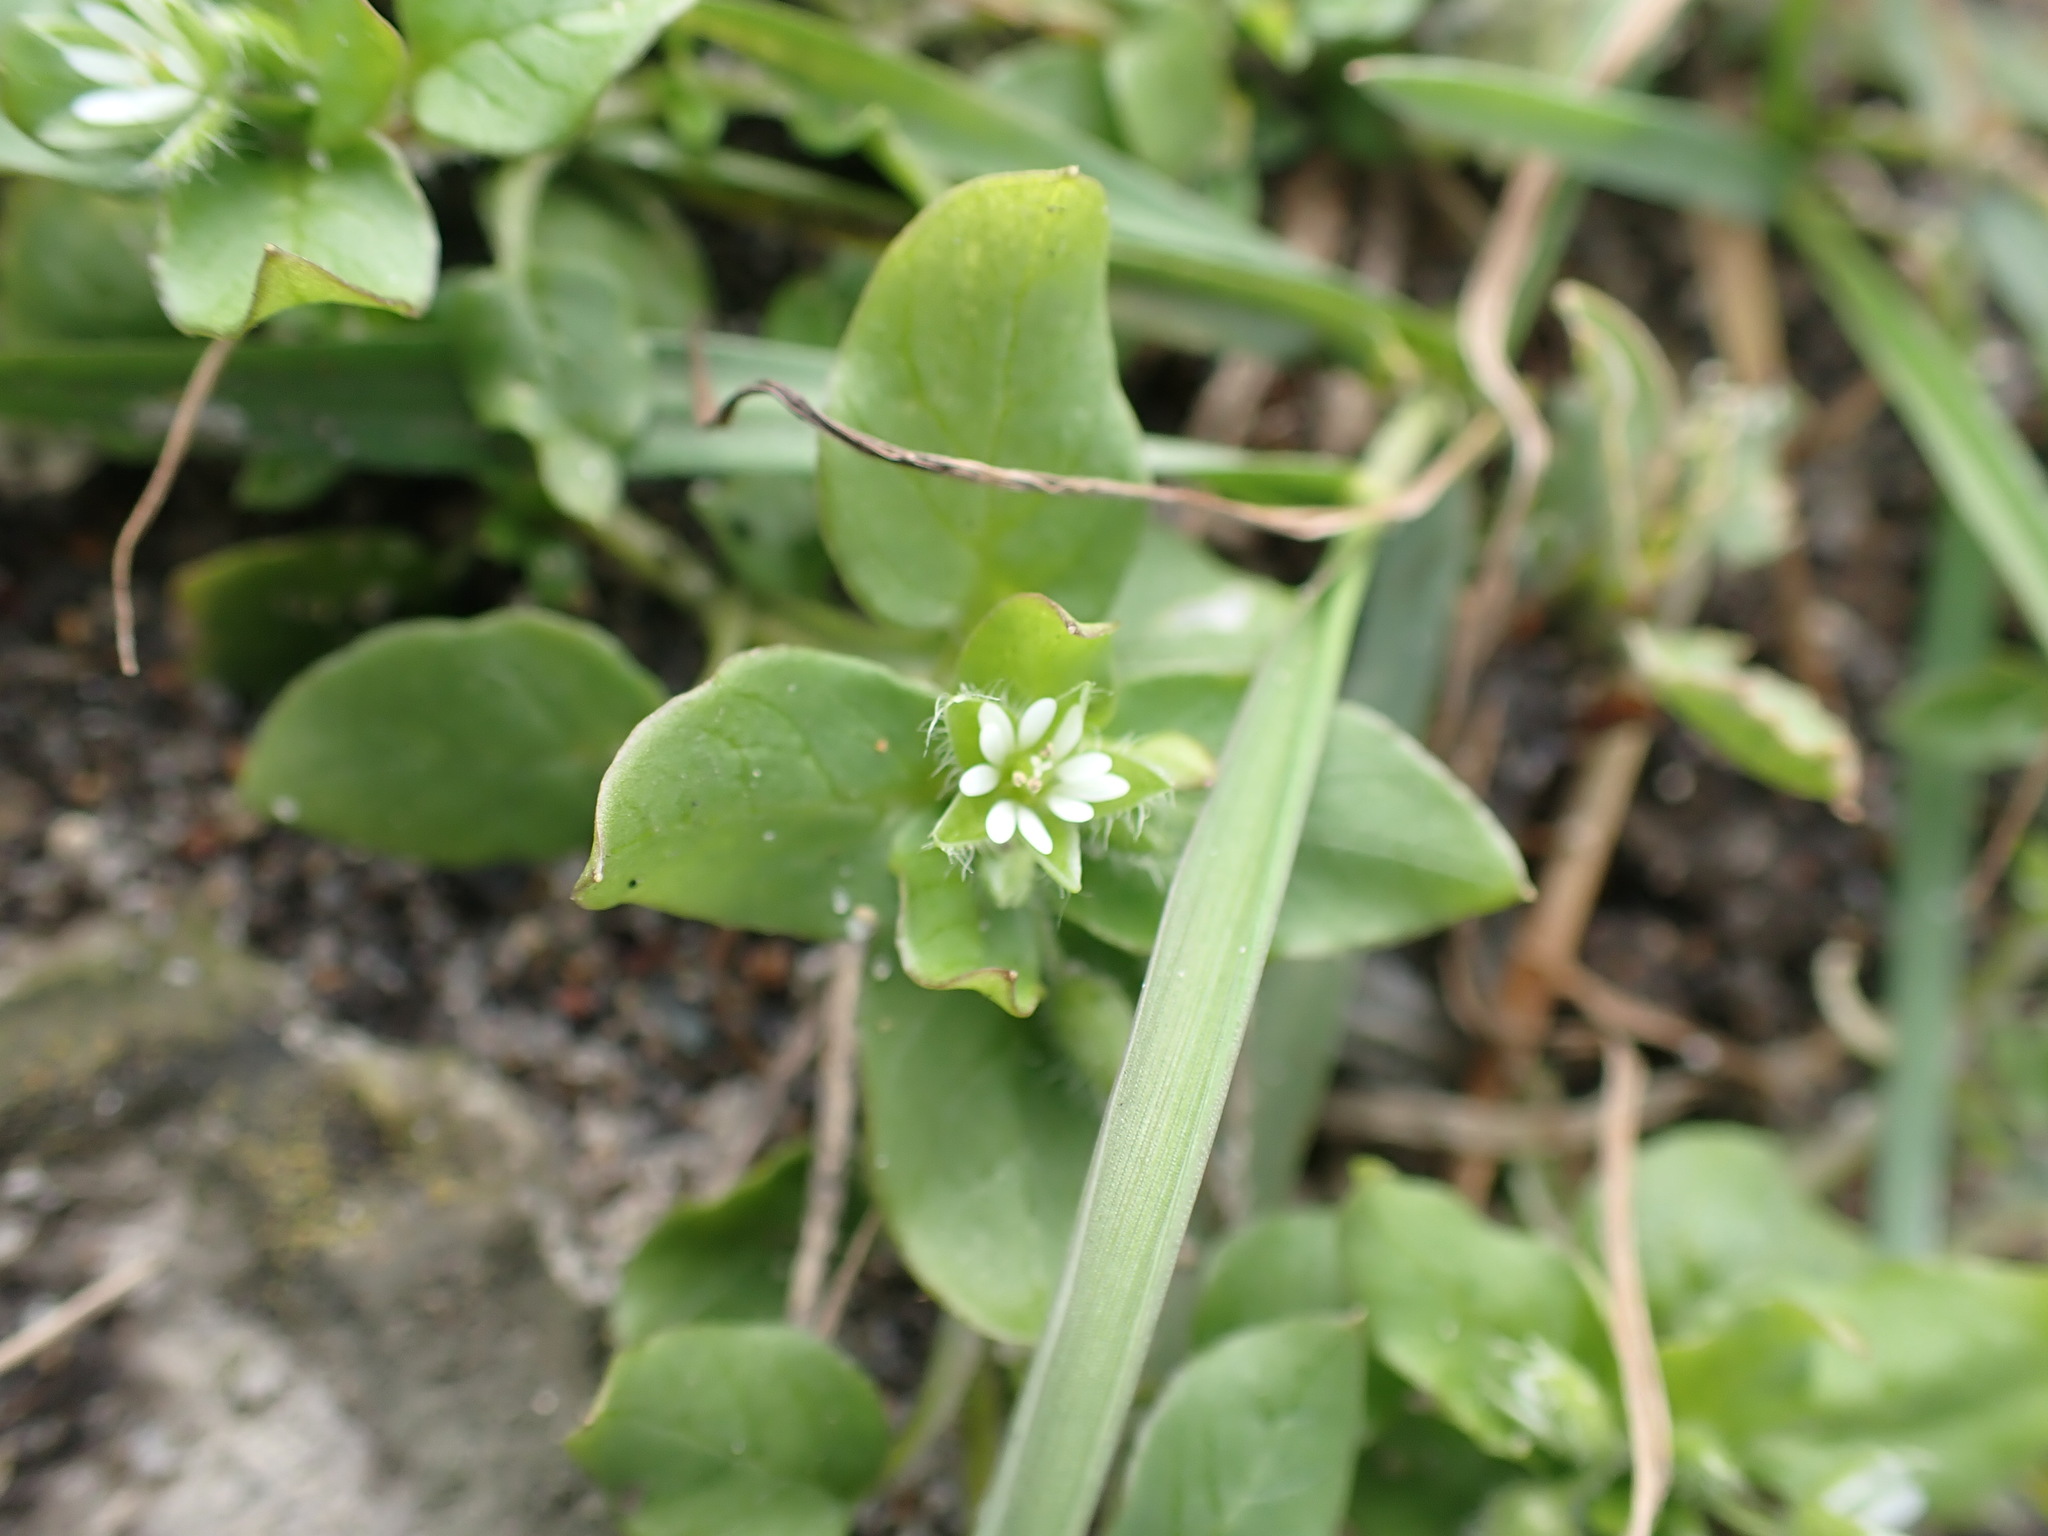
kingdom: Plantae
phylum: Tracheophyta
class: Magnoliopsida
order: Caryophyllales
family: Caryophyllaceae
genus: Stellaria
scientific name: Stellaria media
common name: Common chickweed
